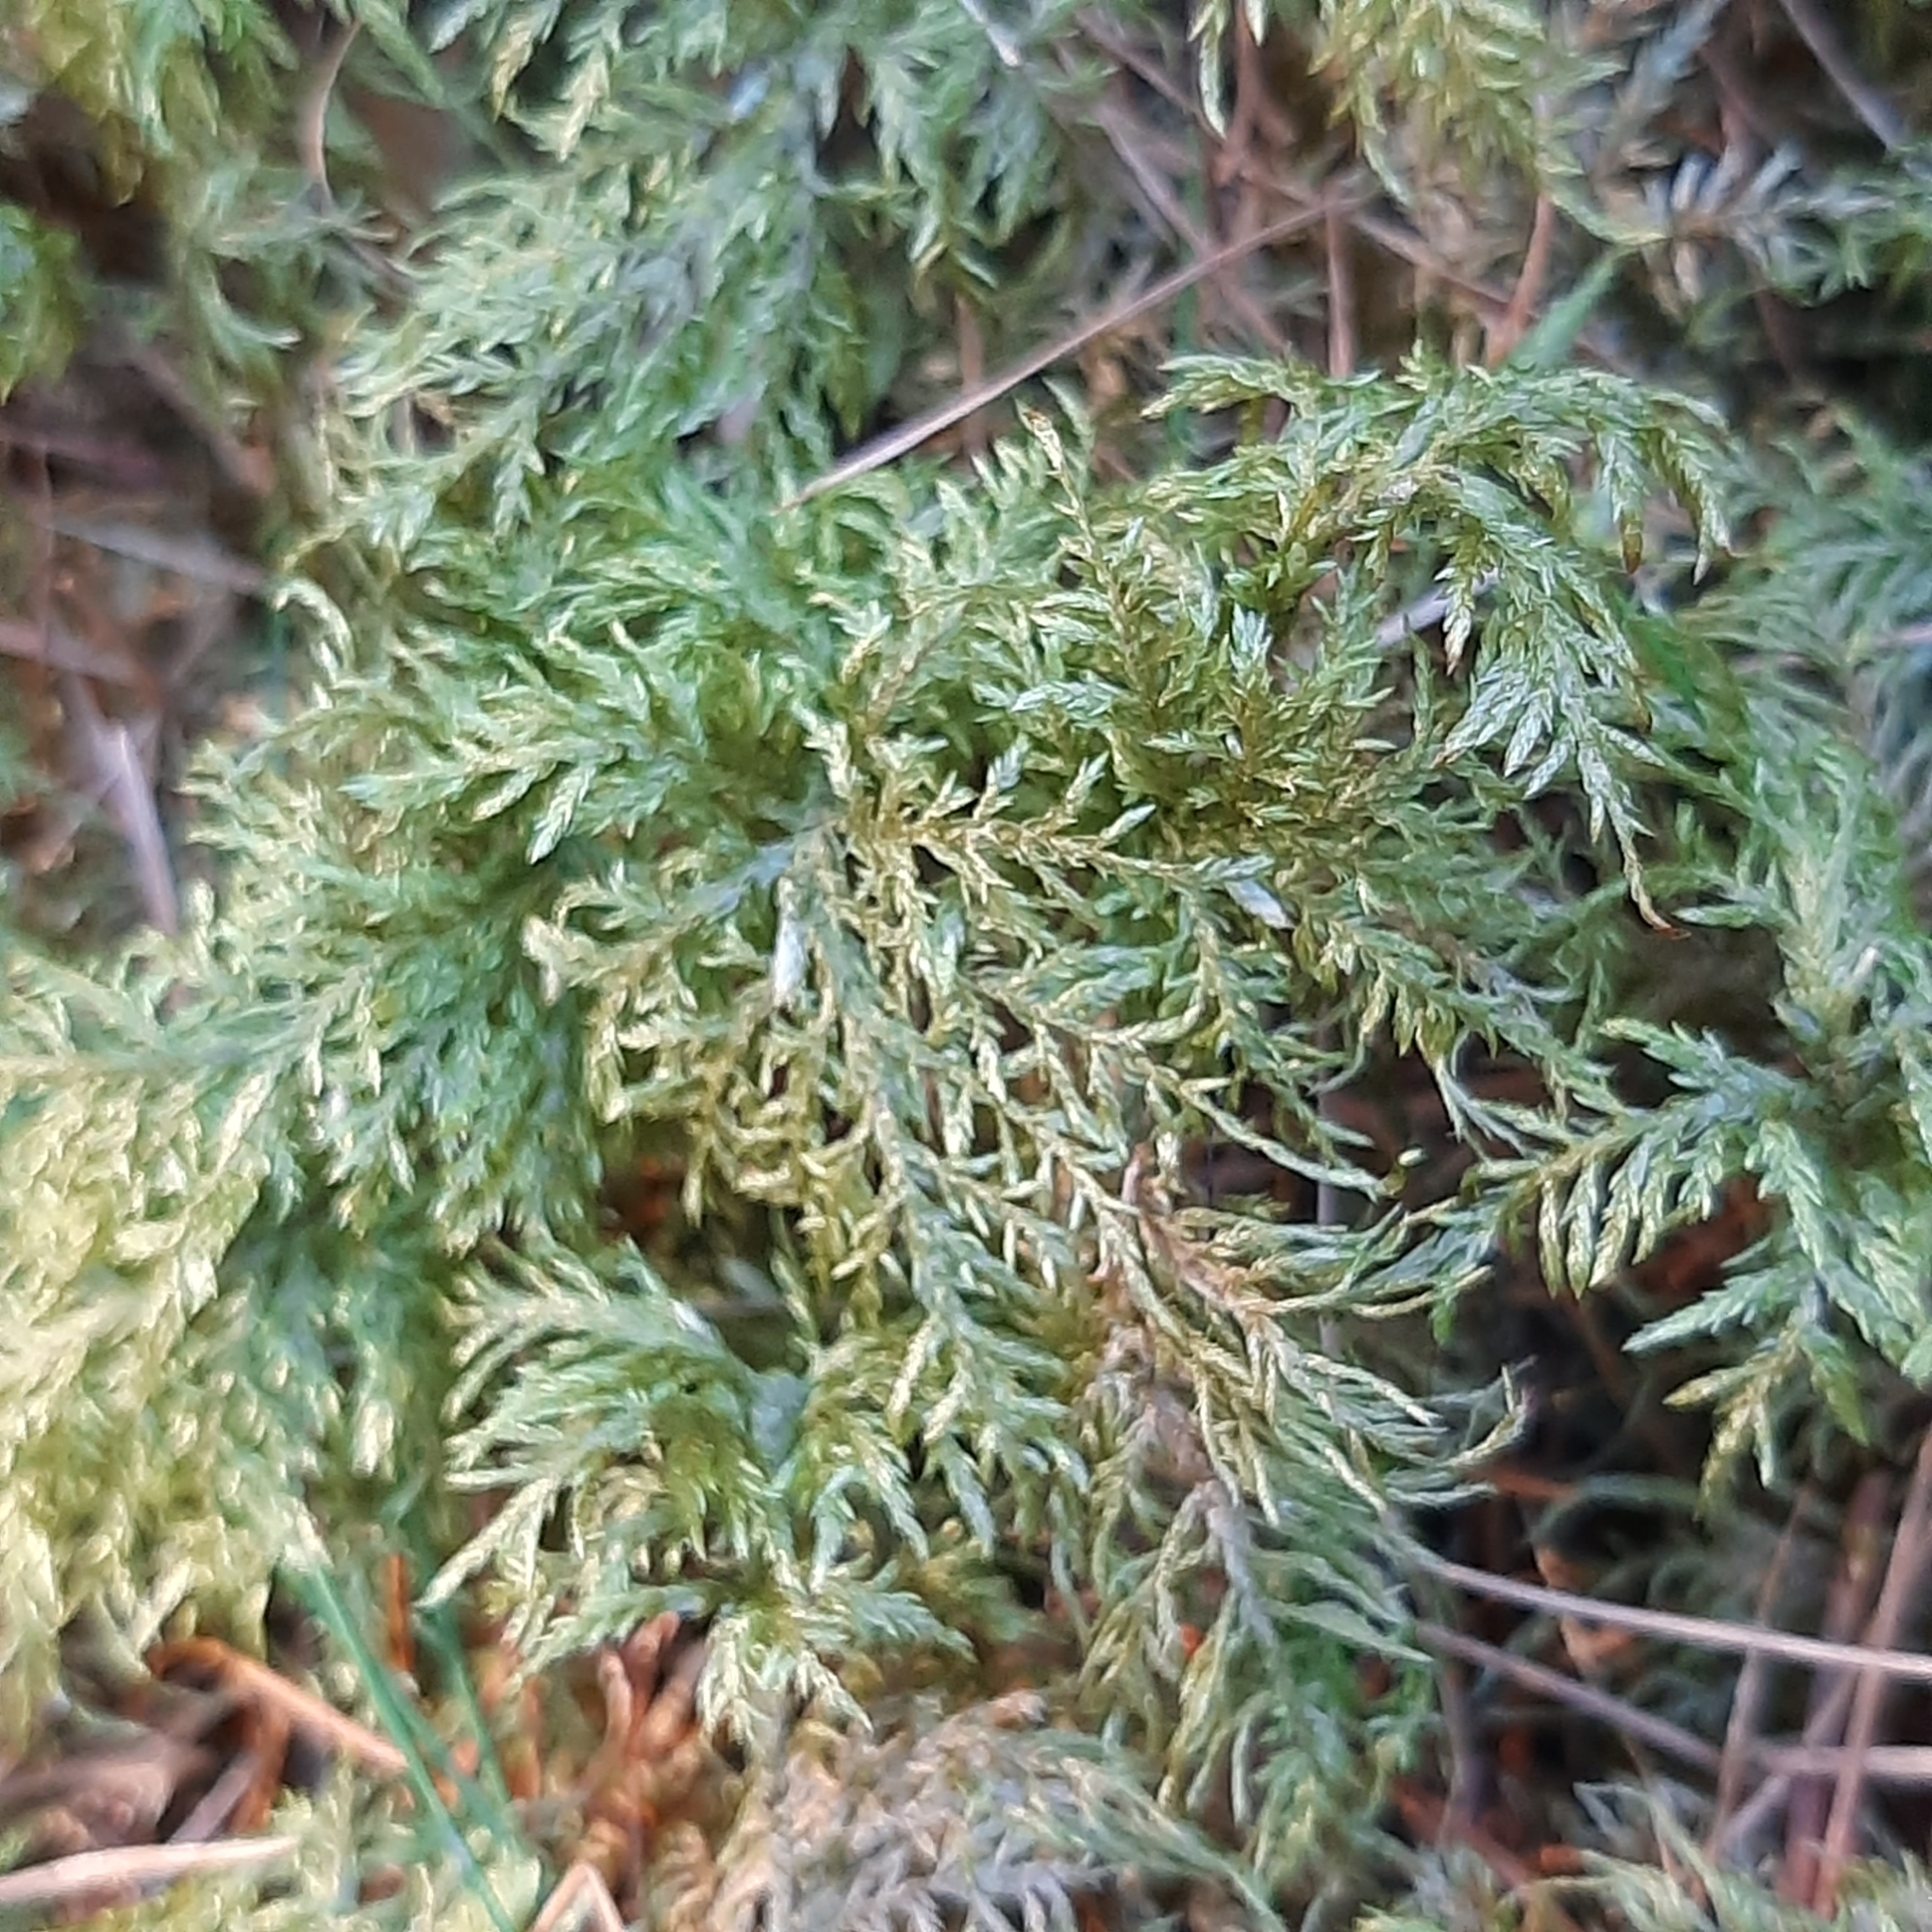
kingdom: Plantae
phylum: Bryophyta
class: Bryopsida
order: Hypnales
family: Hylocomiaceae
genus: Hylocomium
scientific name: Hylocomium splendens
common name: Stairstep moss
